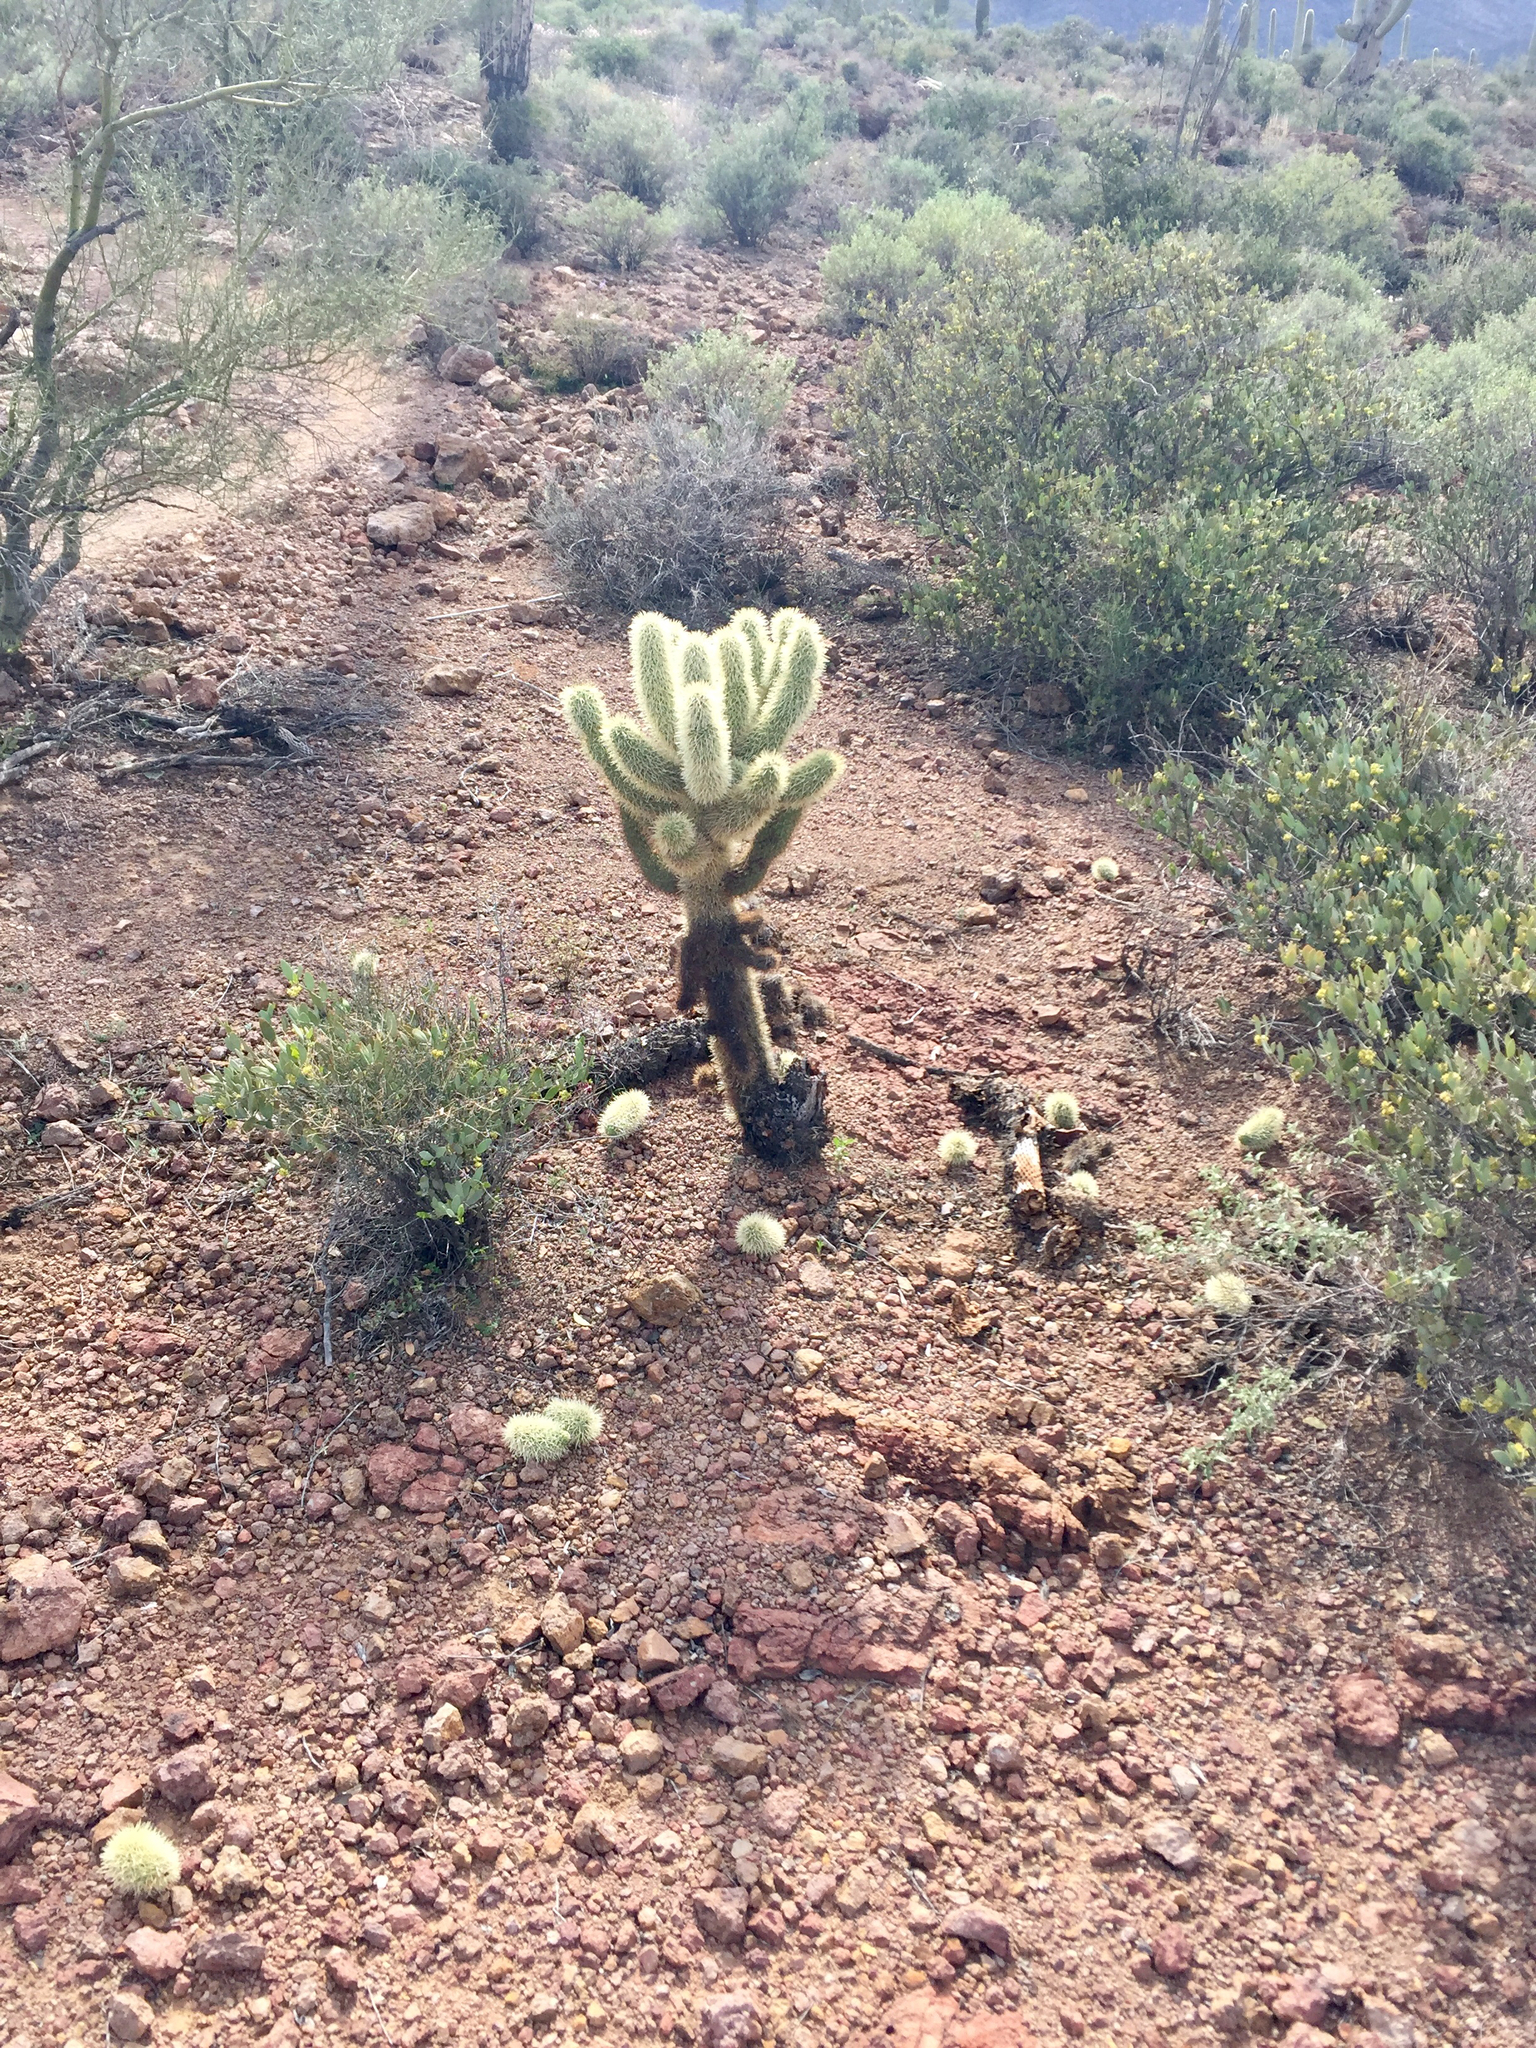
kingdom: Plantae
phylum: Tracheophyta
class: Magnoliopsida
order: Caryophyllales
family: Cactaceae
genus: Cylindropuntia
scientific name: Cylindropuntia fosbergii
